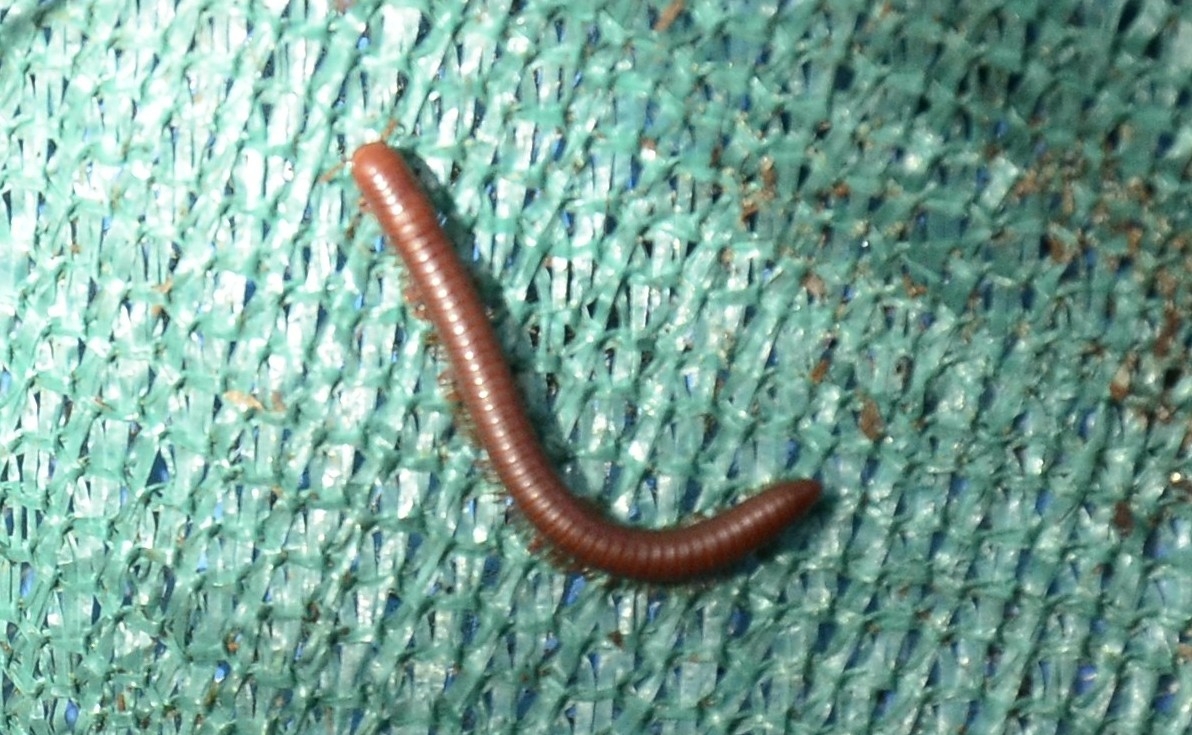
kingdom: Animalia
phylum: Arthropoda
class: Diplopoda
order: Spirobolida
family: Pachybolidae
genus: Trigoniulus
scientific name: Trigoniulus corallinus
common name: Millipede
